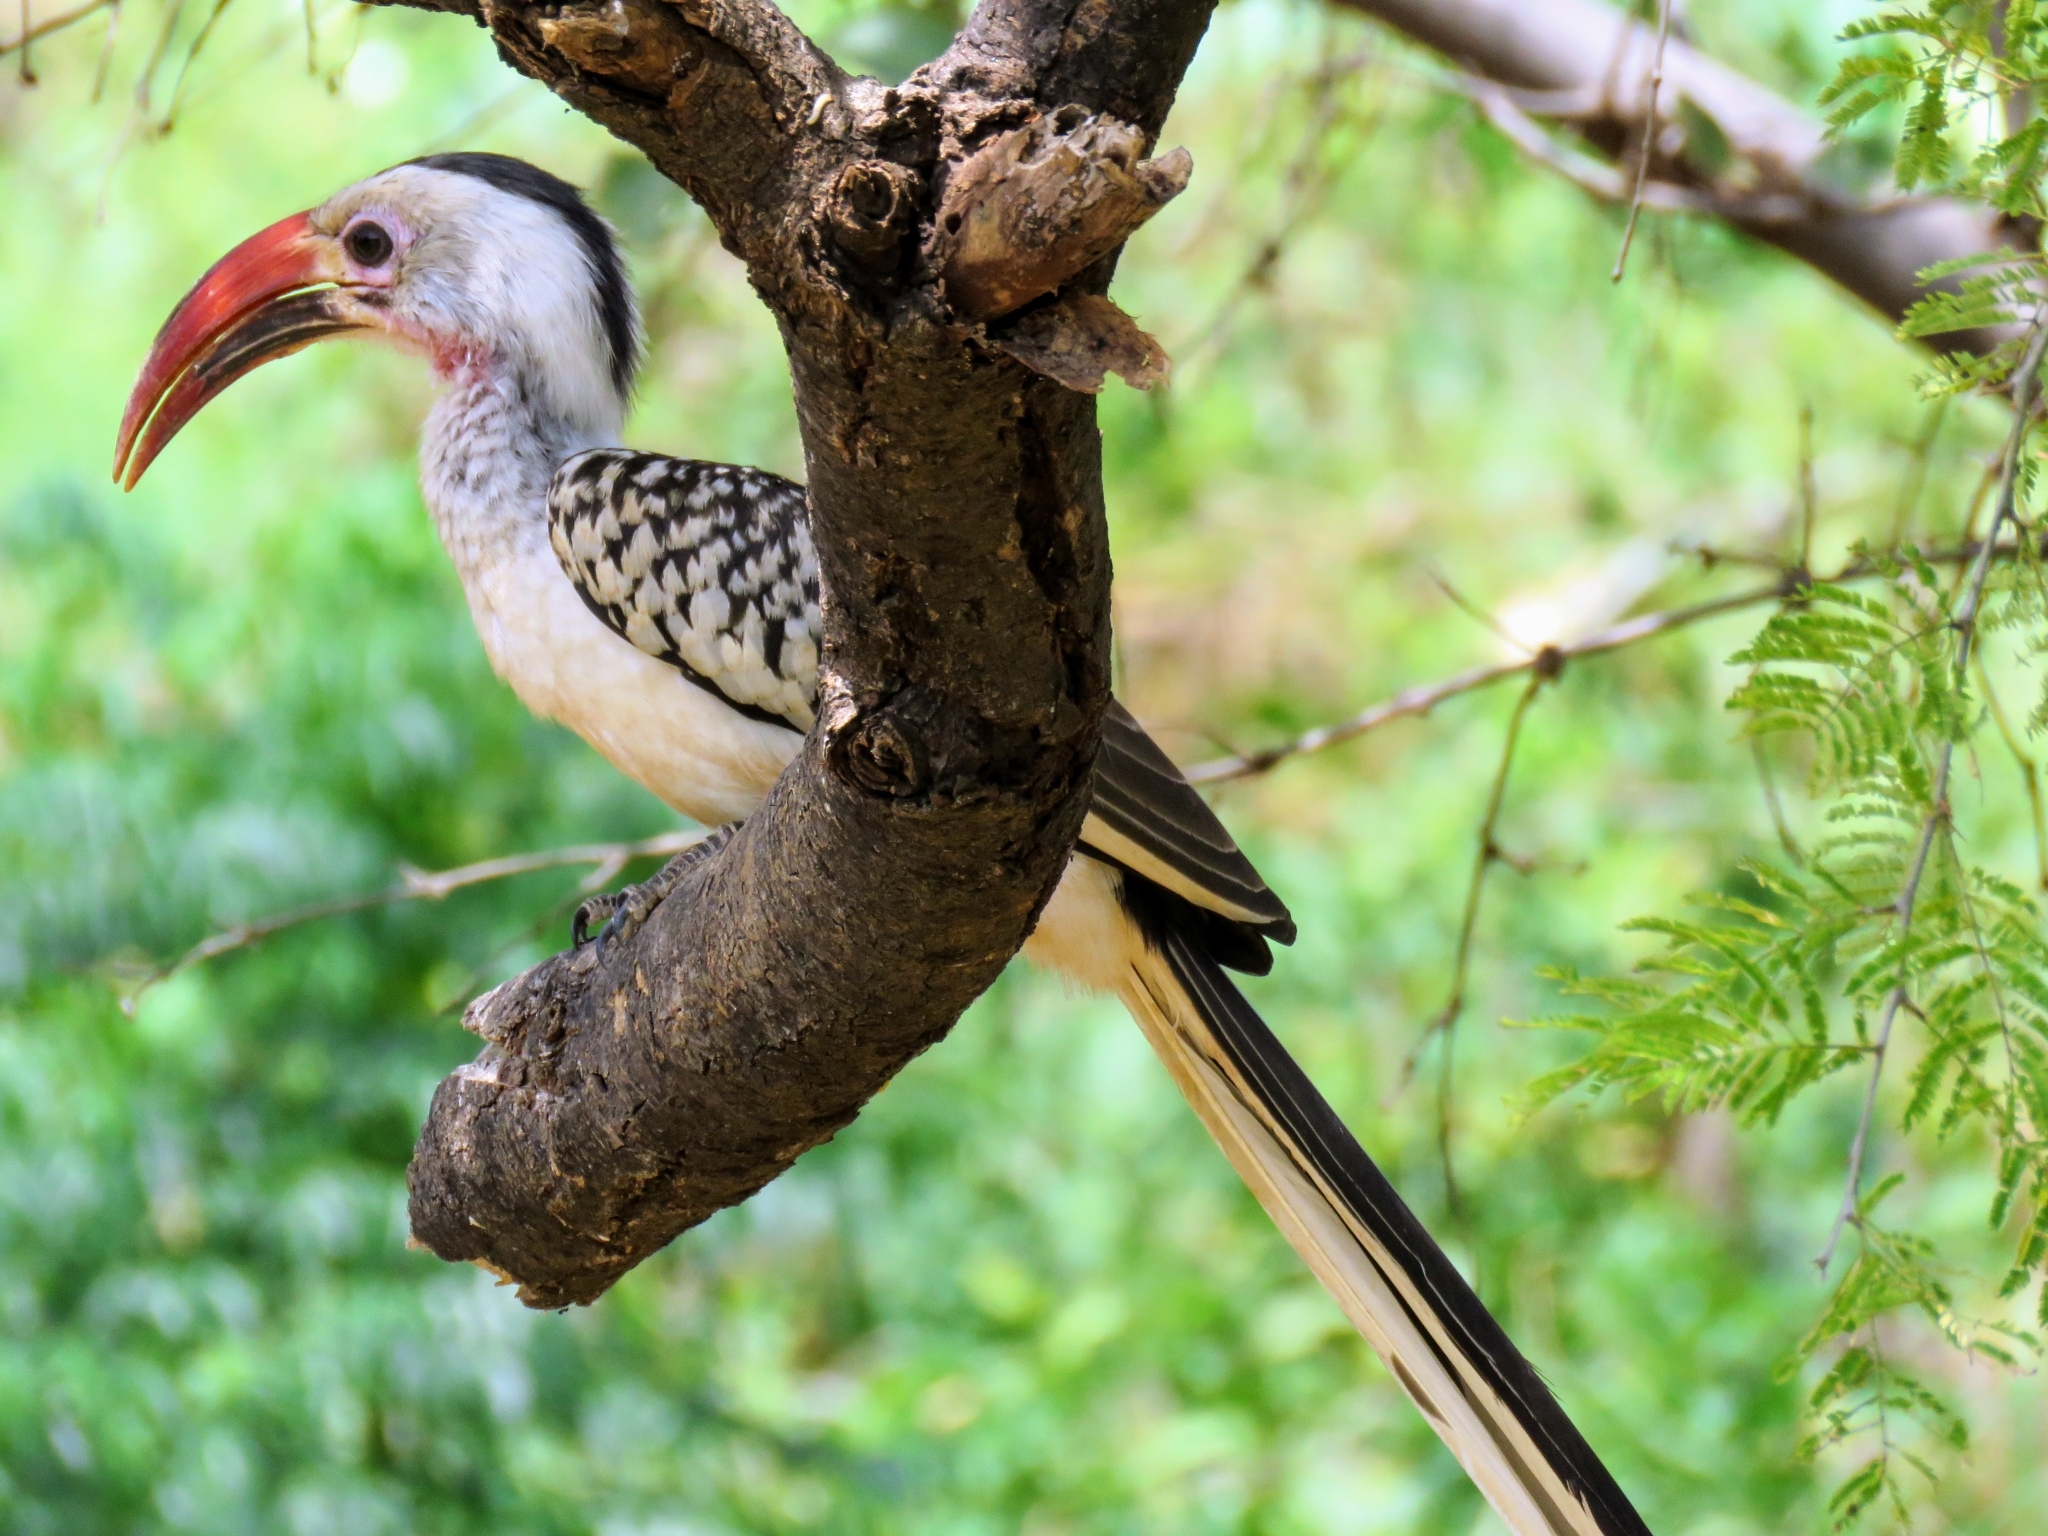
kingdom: Animalia
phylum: Chordata
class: Aves
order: Bucerotiformes
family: Bucerotidae
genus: Tockus
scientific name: Tockus erythrorhynchus
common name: Northern red-billed hornbill
